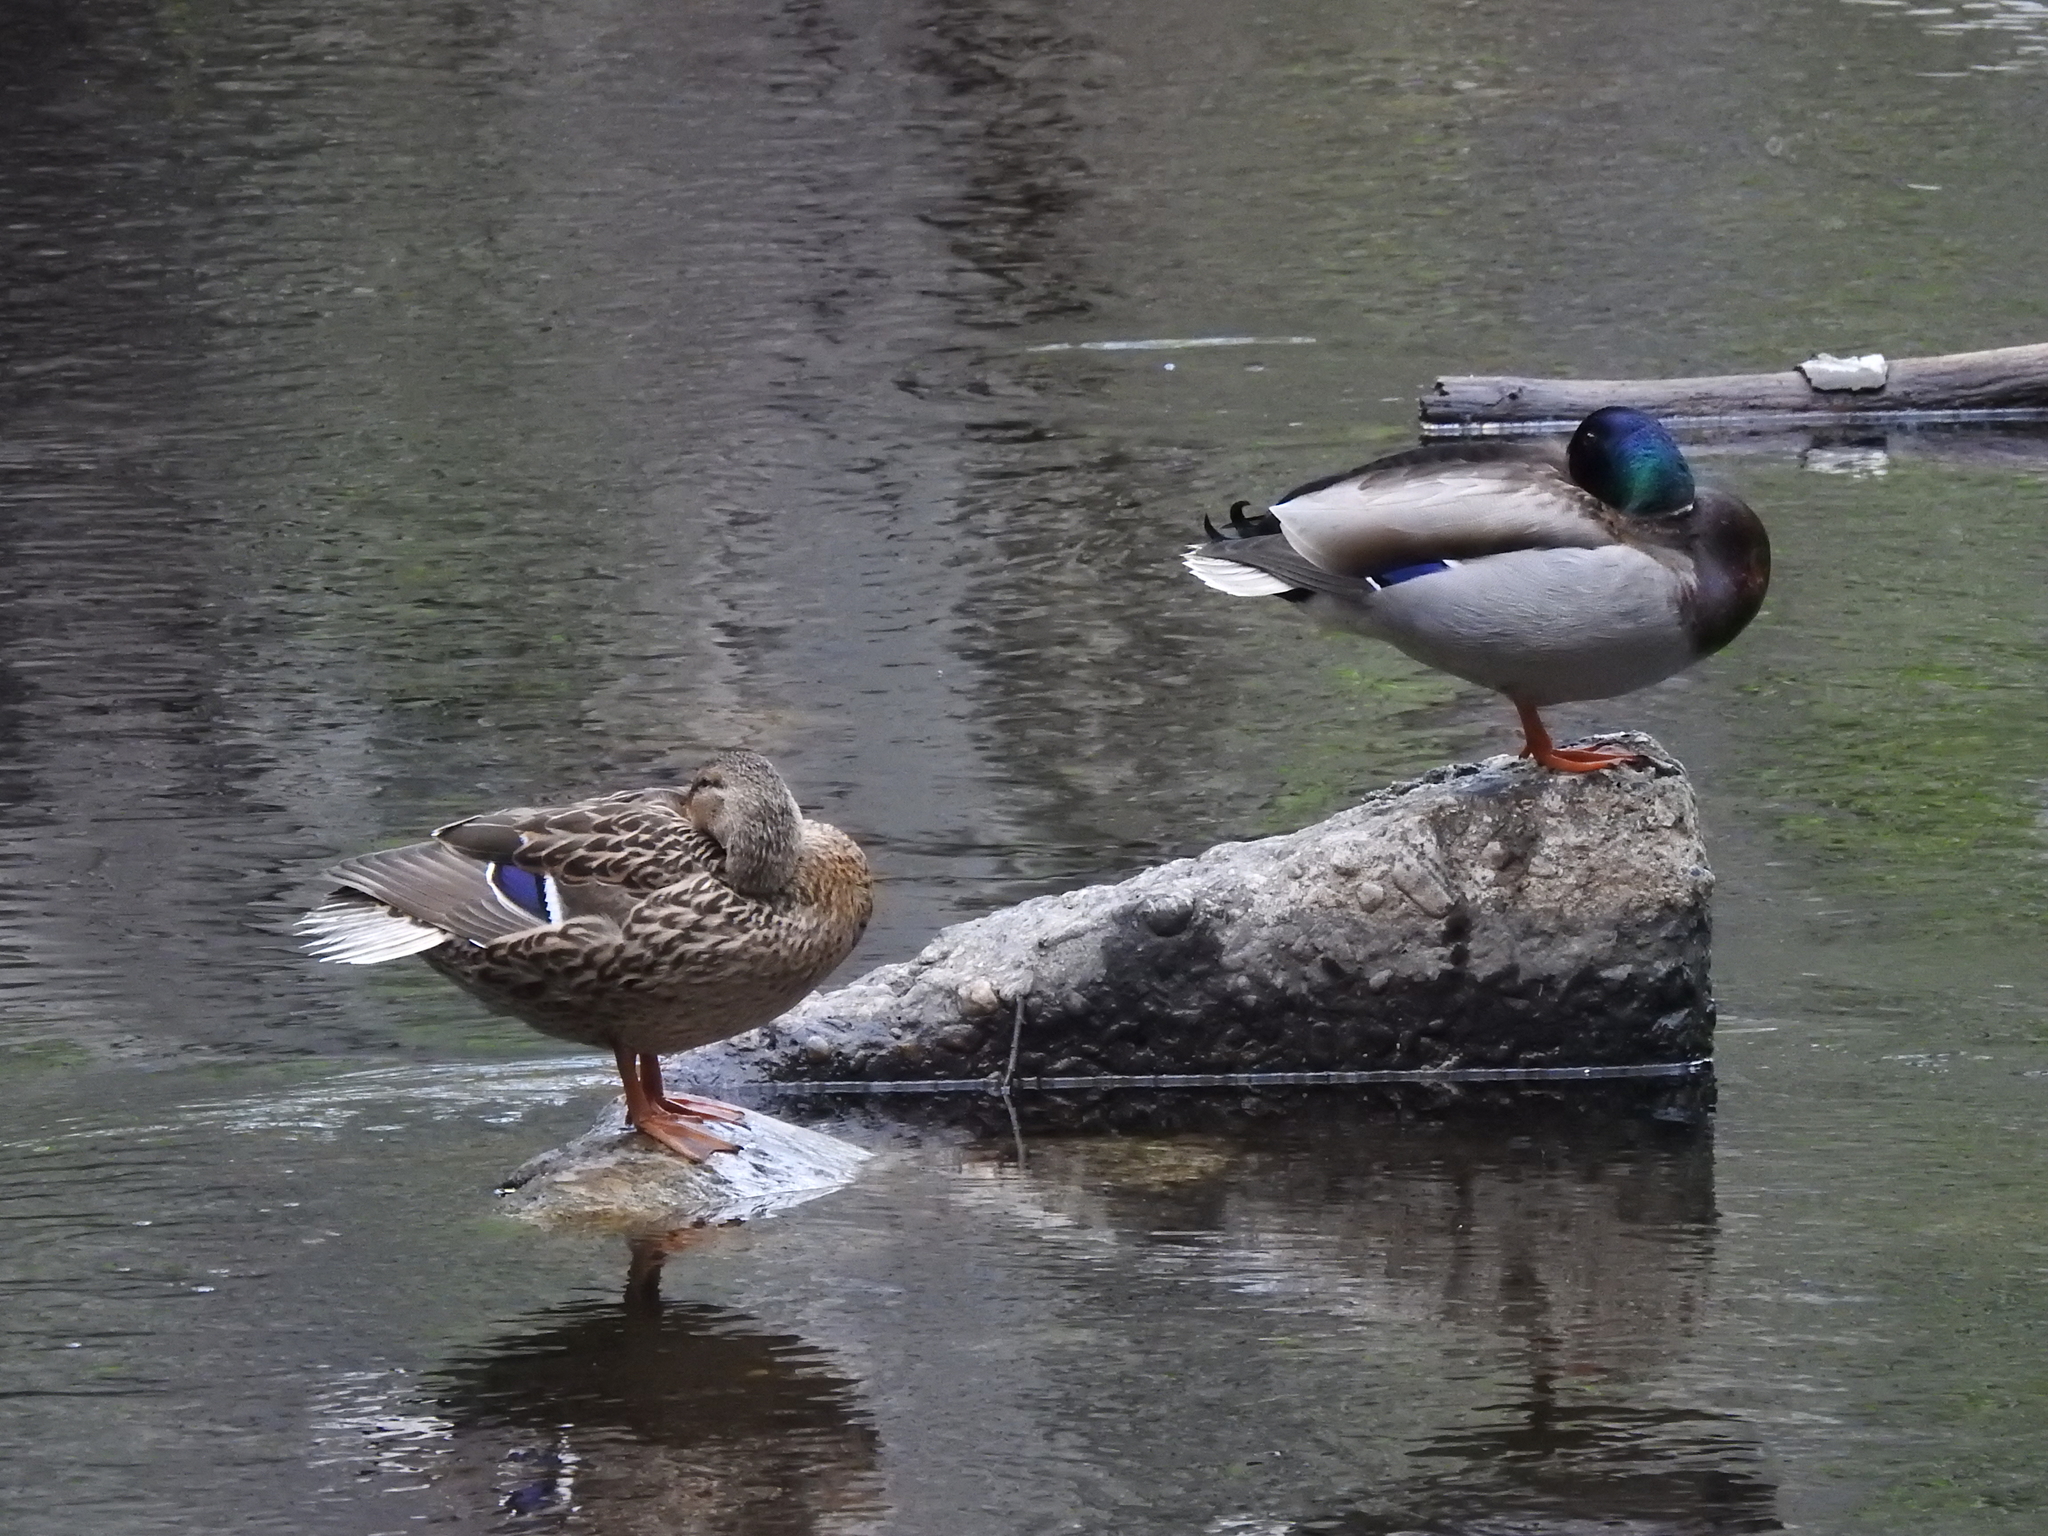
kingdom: Animalia
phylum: Chordata
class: Aves
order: Anseriformes
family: Anatidae
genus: Anas
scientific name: Anas platyrhynchos
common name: Mallard
